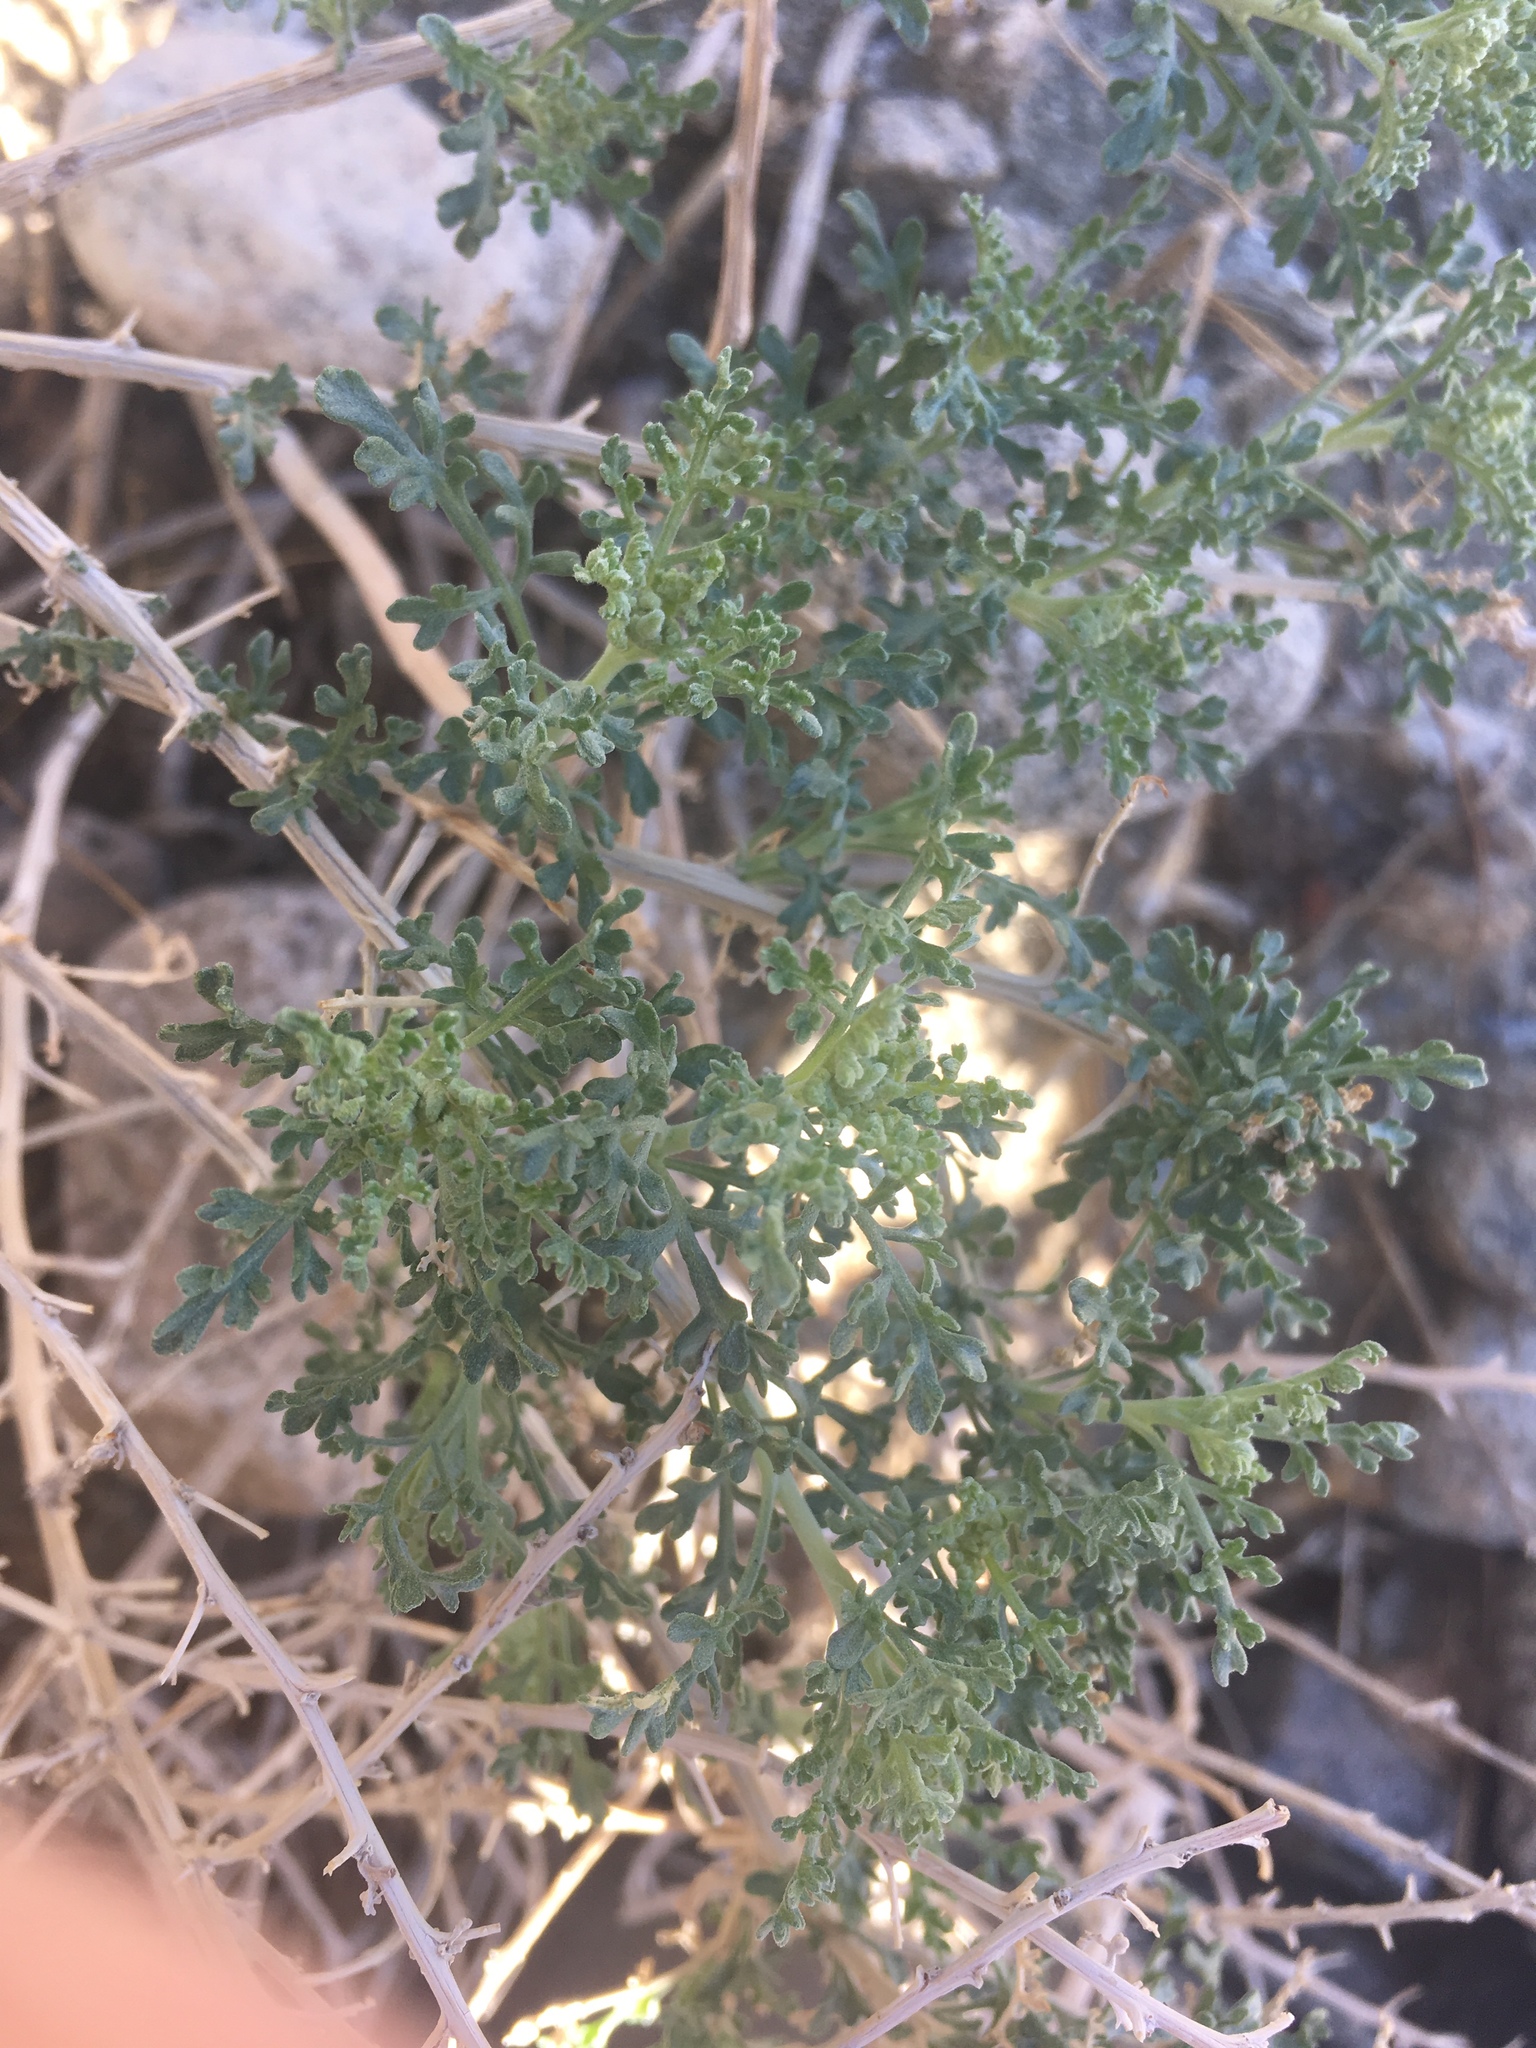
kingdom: Plantae
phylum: Tracheophyta
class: Magnoliopsida
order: Asterales
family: Asteraceae
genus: Ambrosia
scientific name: Ambrosia dumosa
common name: Bur-sage
